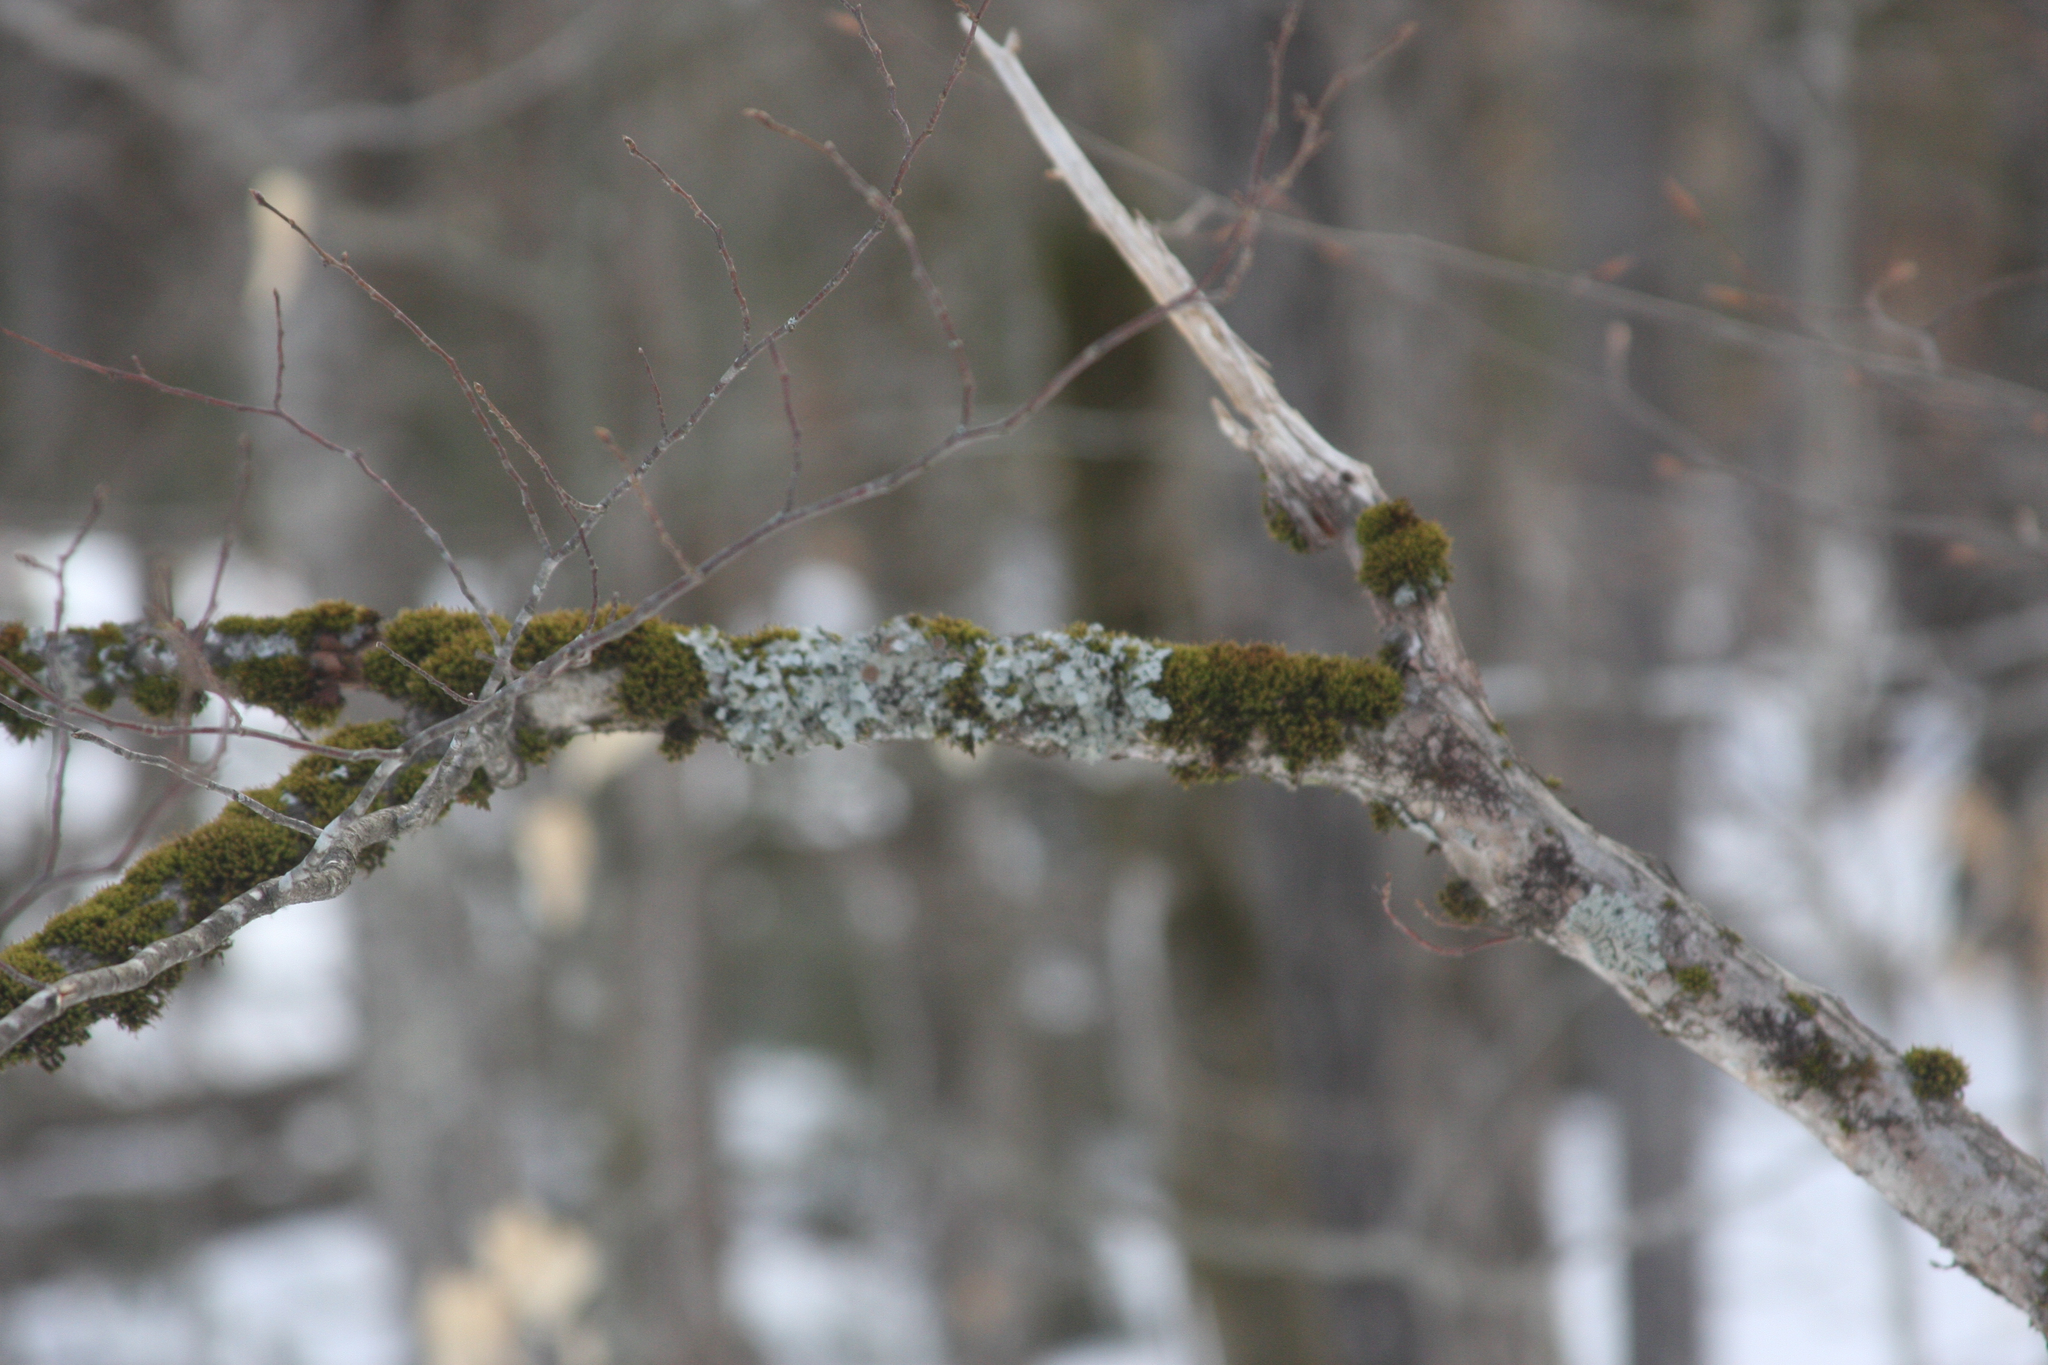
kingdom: Plantae
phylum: Bryophyta
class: Bryopsida
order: Orthotrichales
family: Orthotrichaceae
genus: Ulota
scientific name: Ulota crispa
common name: Crisped pincushion moss
